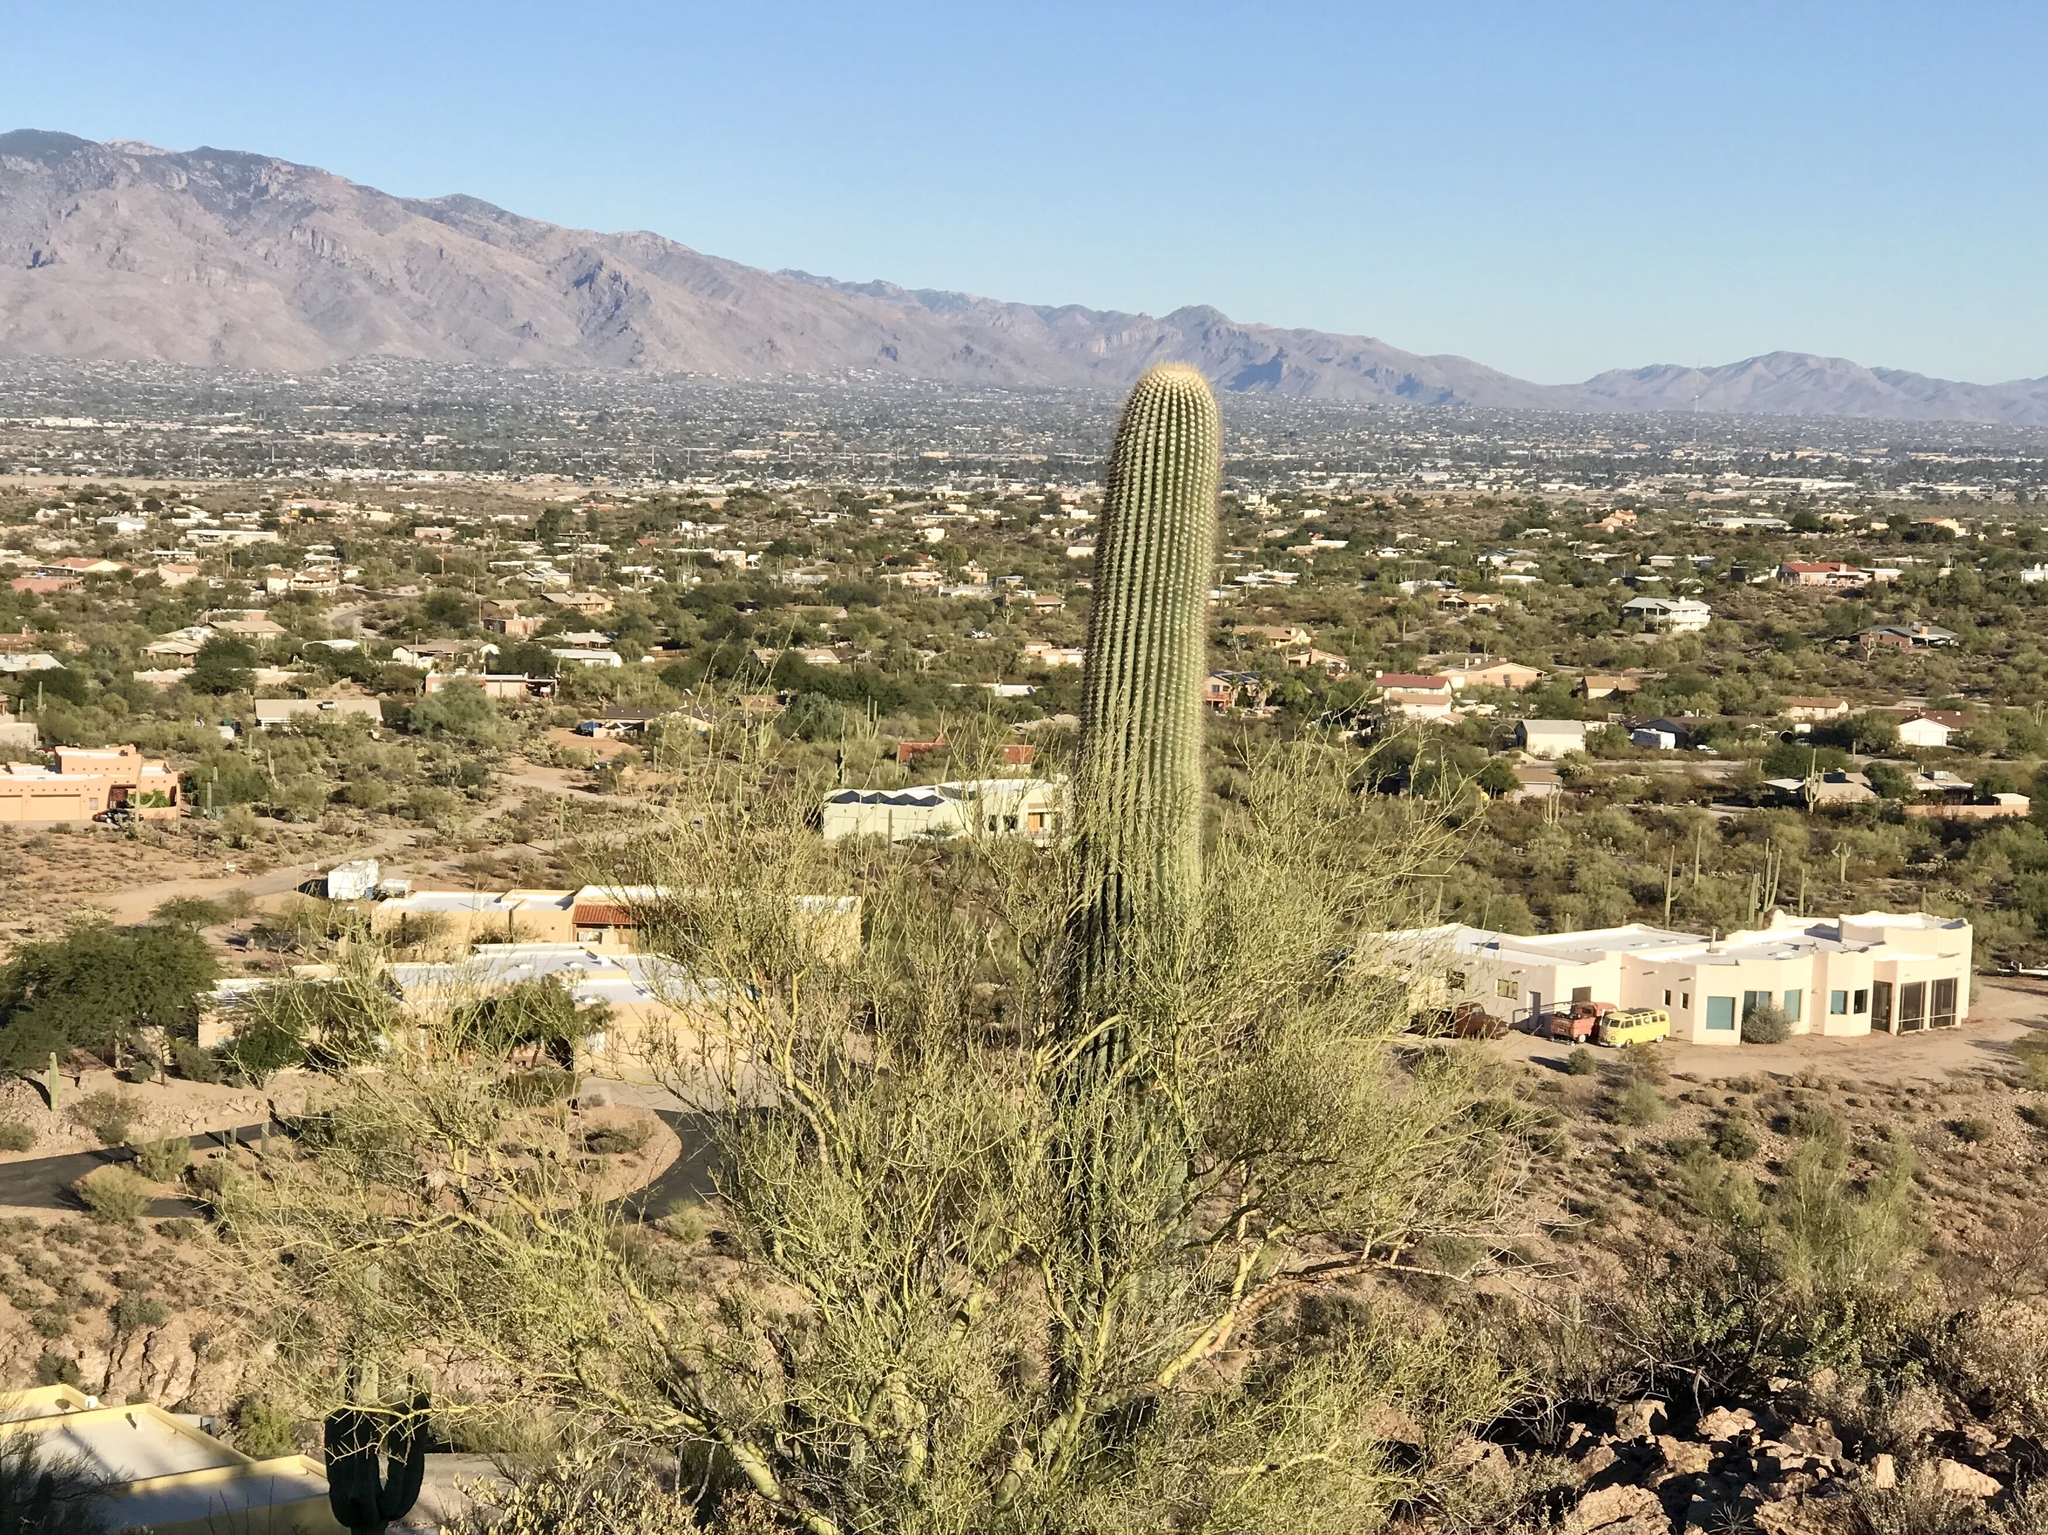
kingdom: Plantae
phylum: Tracheophyta
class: Magnoliopsida
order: Caryophyllales
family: Cactaceae
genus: Carnegiea
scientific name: Carnegiea gigantea
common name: Saguaro
